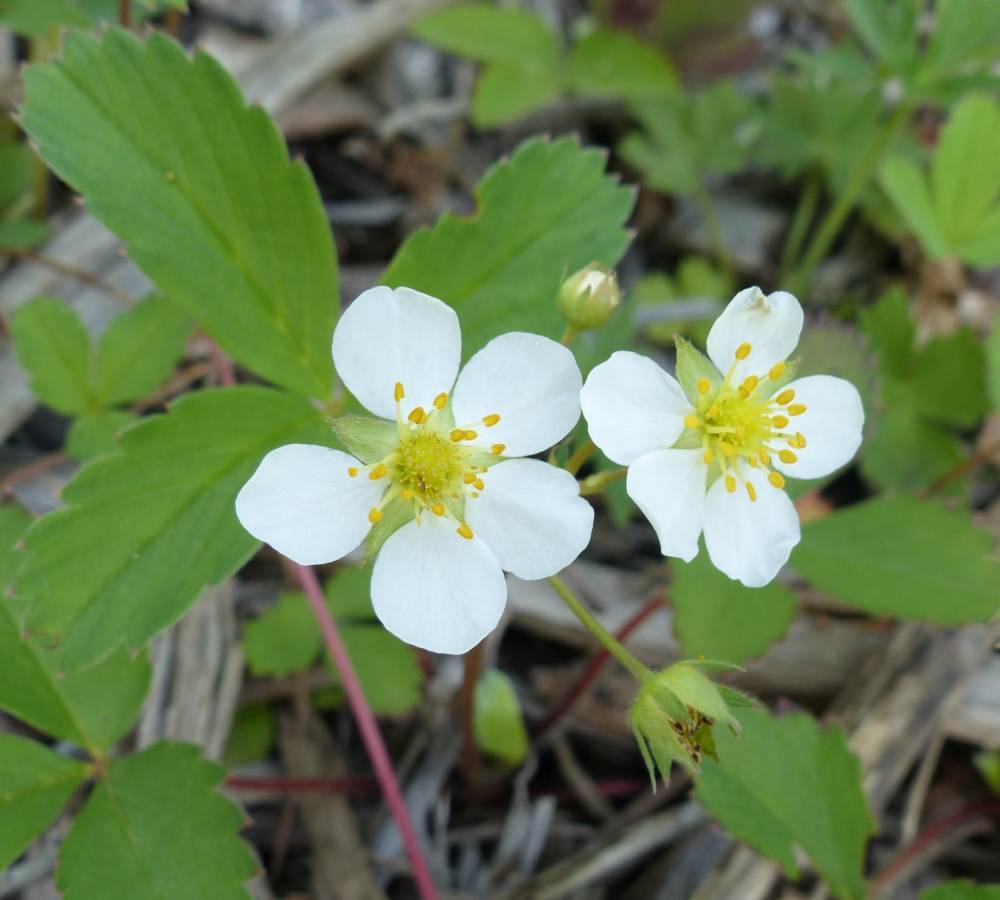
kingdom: Plantae
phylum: Tracheophyta
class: Magnoliopsida
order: Rosales
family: Rosaceae
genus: Fragaria
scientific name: Fragaria virginiana
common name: Thickleaved wild strawberry
